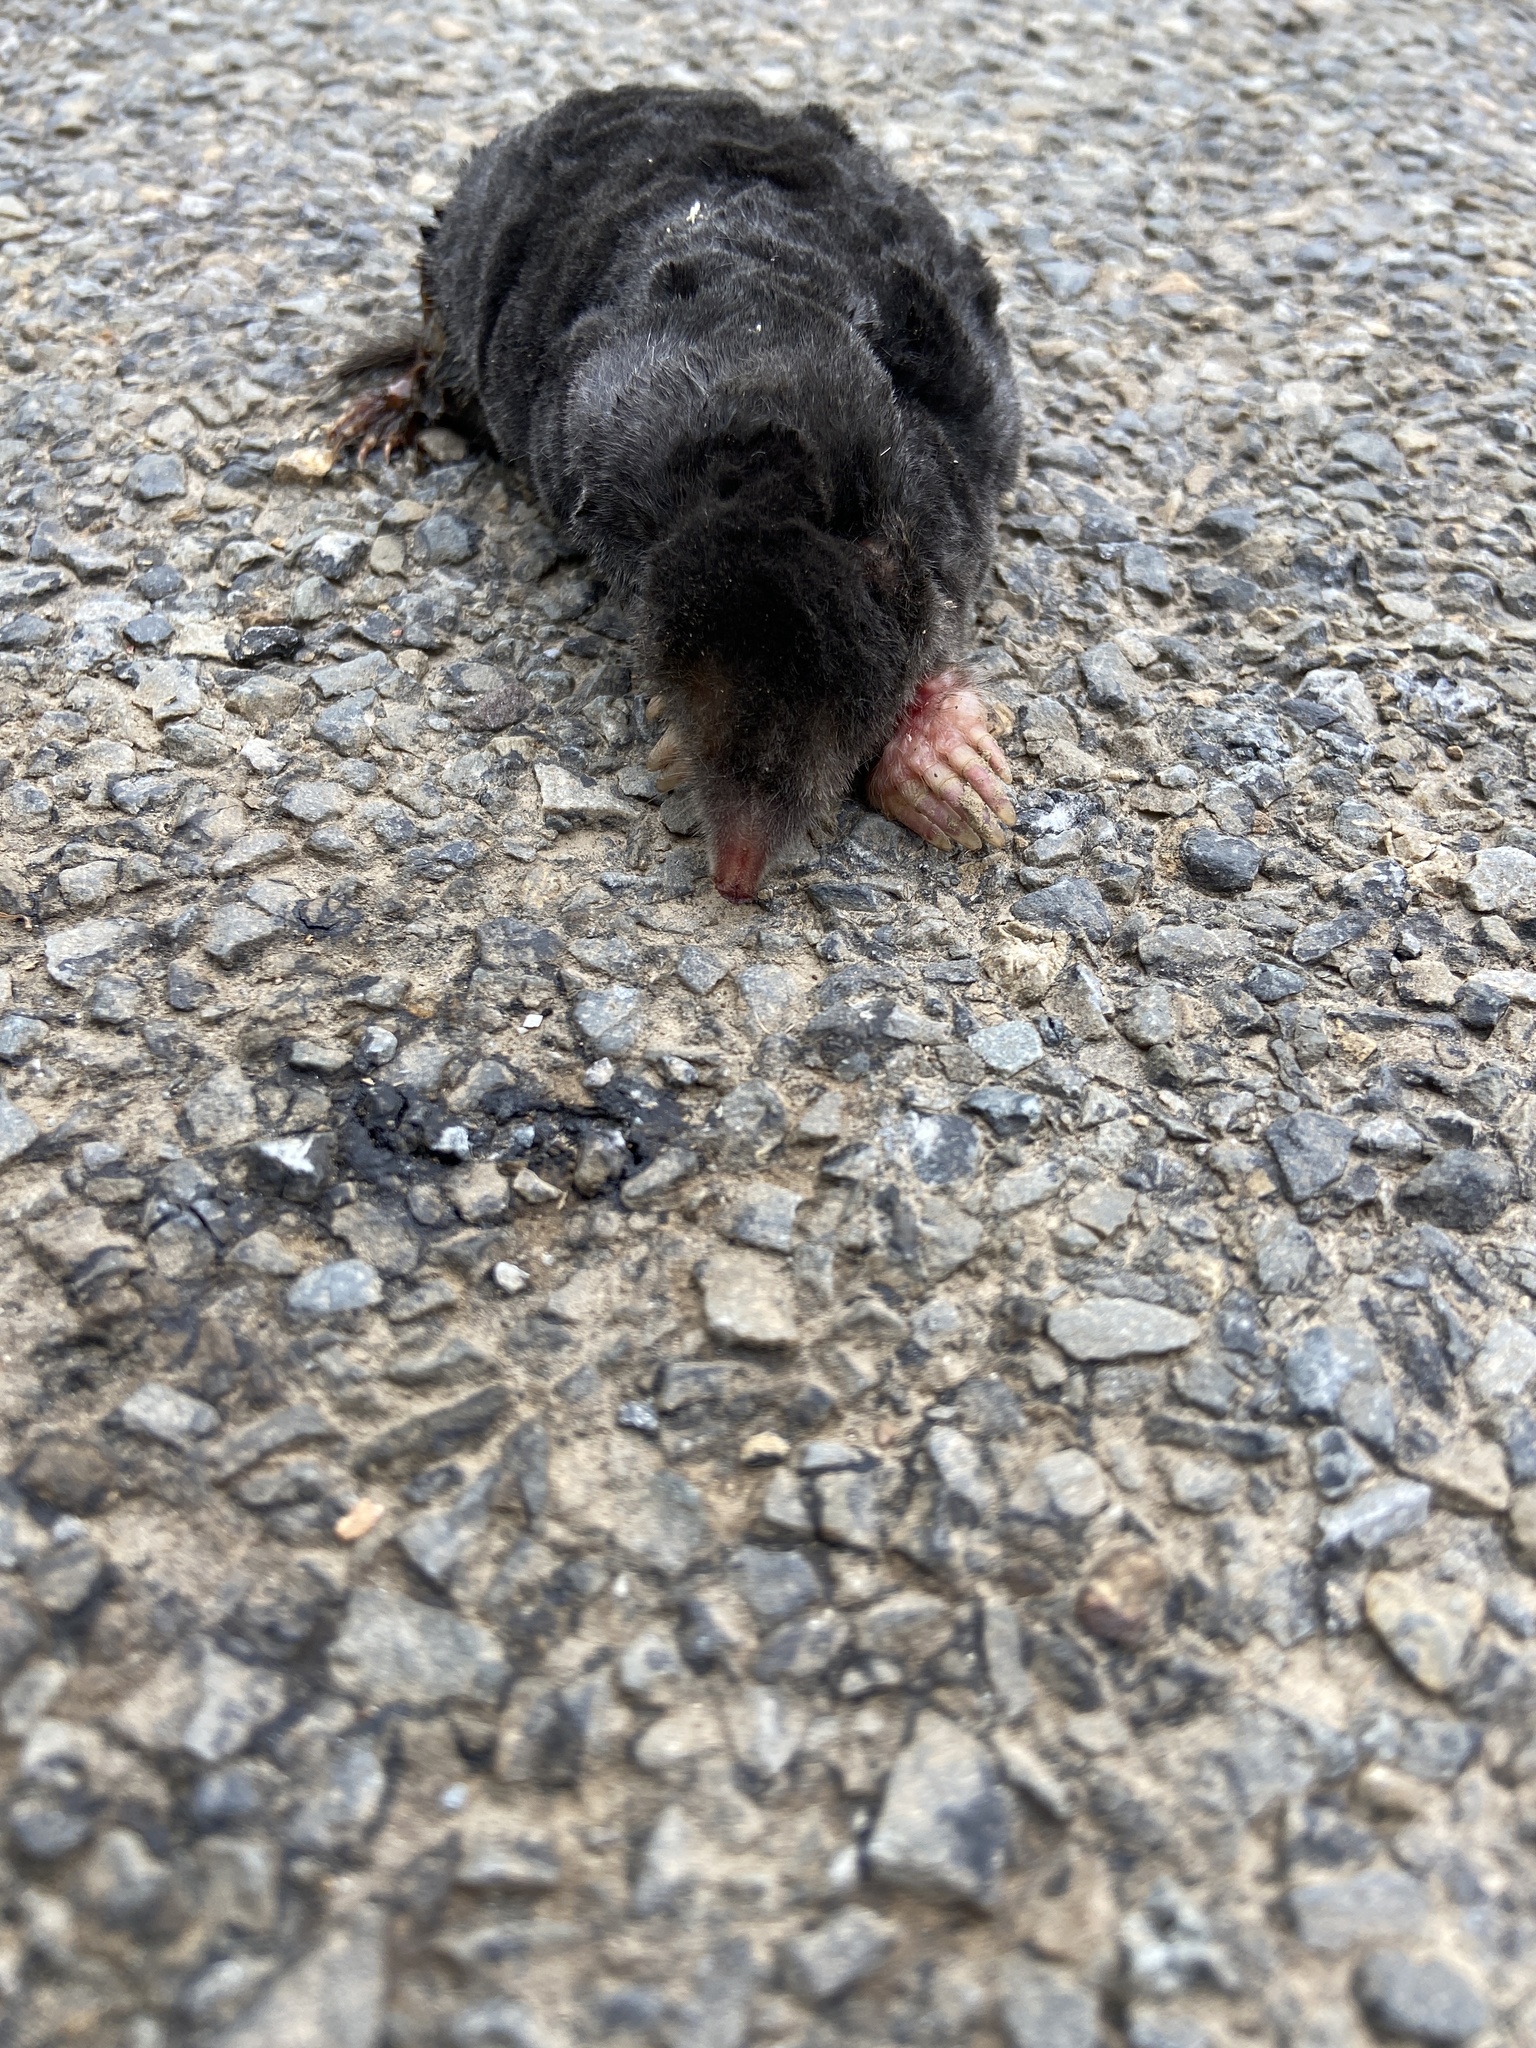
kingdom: Animalia
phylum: Chordata
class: Mammalia
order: Soricomorpha
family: Talpidae
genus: Talpa
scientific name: Talpa europaea
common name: European mole
